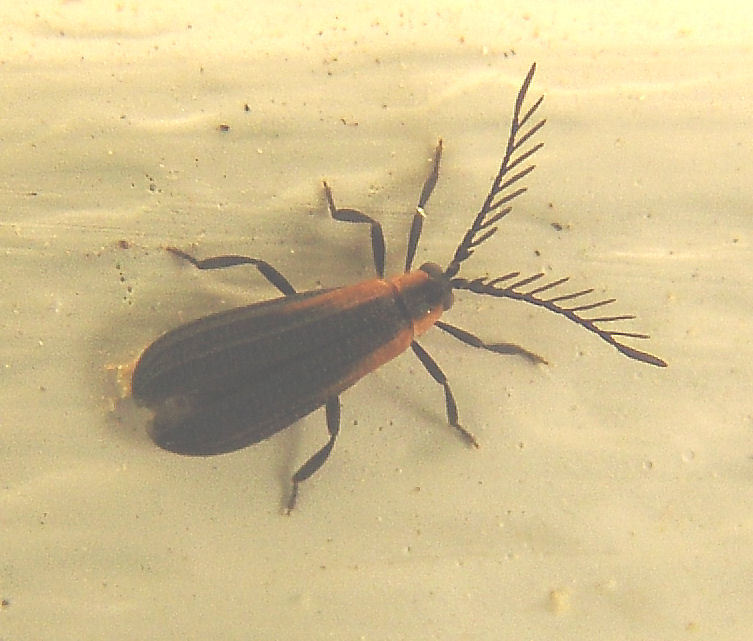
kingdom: Animalia
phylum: Arthropoda
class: Insecta
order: Coleoptera
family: Lycidae
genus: Leptoceletes
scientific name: Leptoceletes basalis
